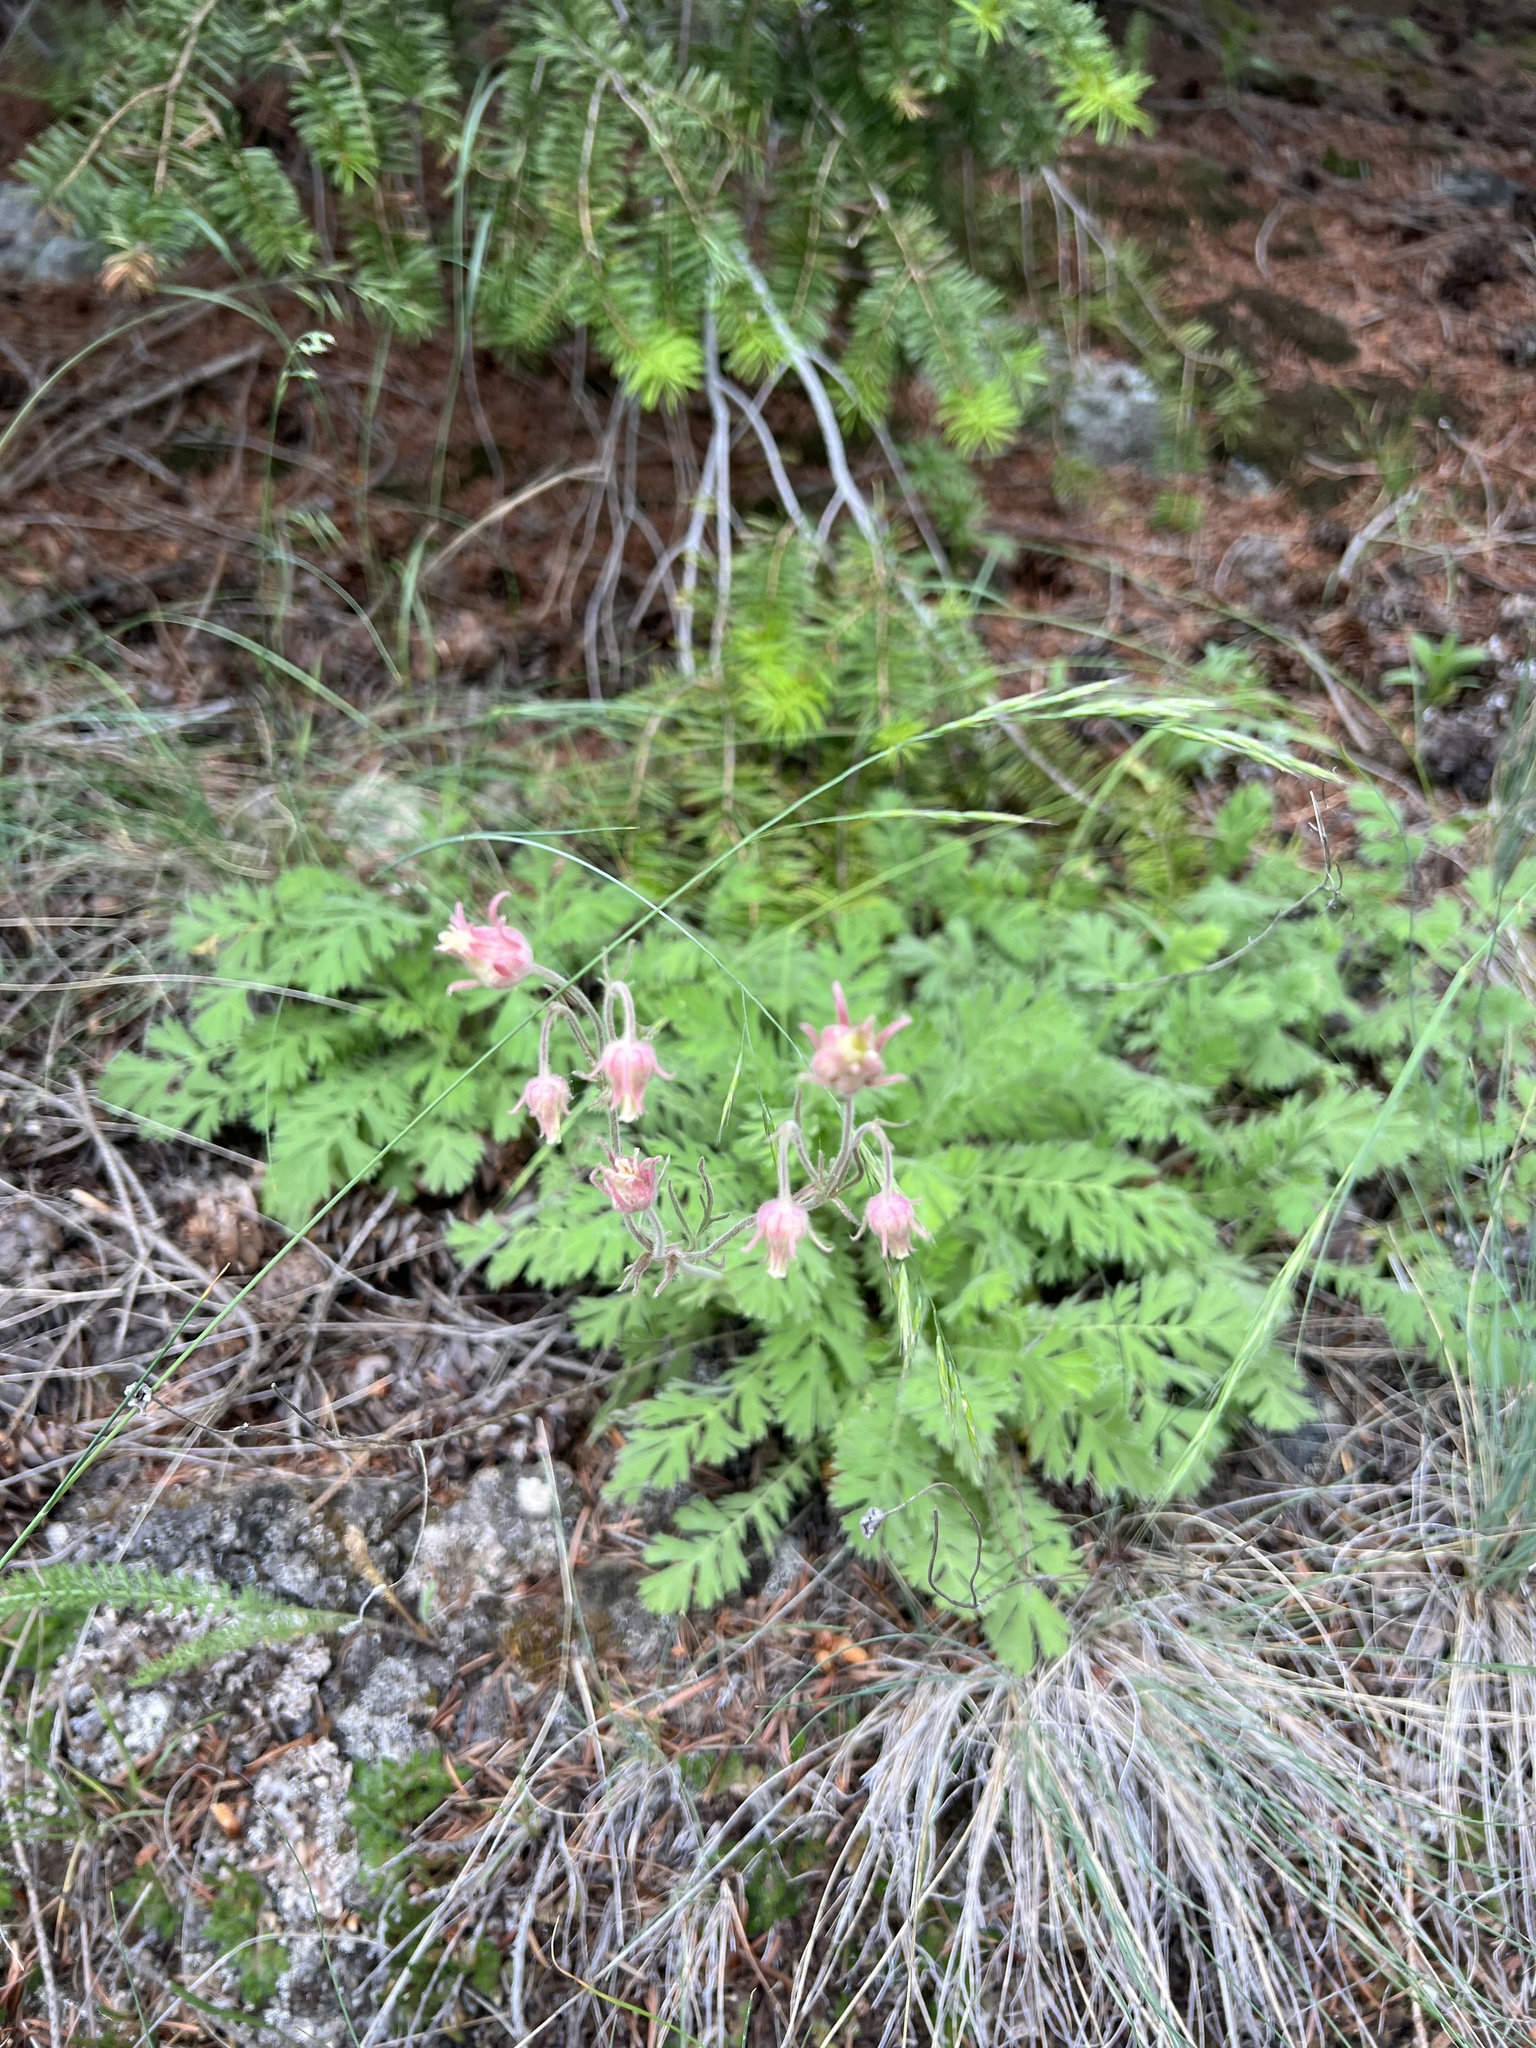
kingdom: Plantae
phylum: Tracheophyta
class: Magnoliopsida
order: Rosales
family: Rosaceae
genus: Geum
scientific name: Geum triflorum
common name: Old man's whiskers
